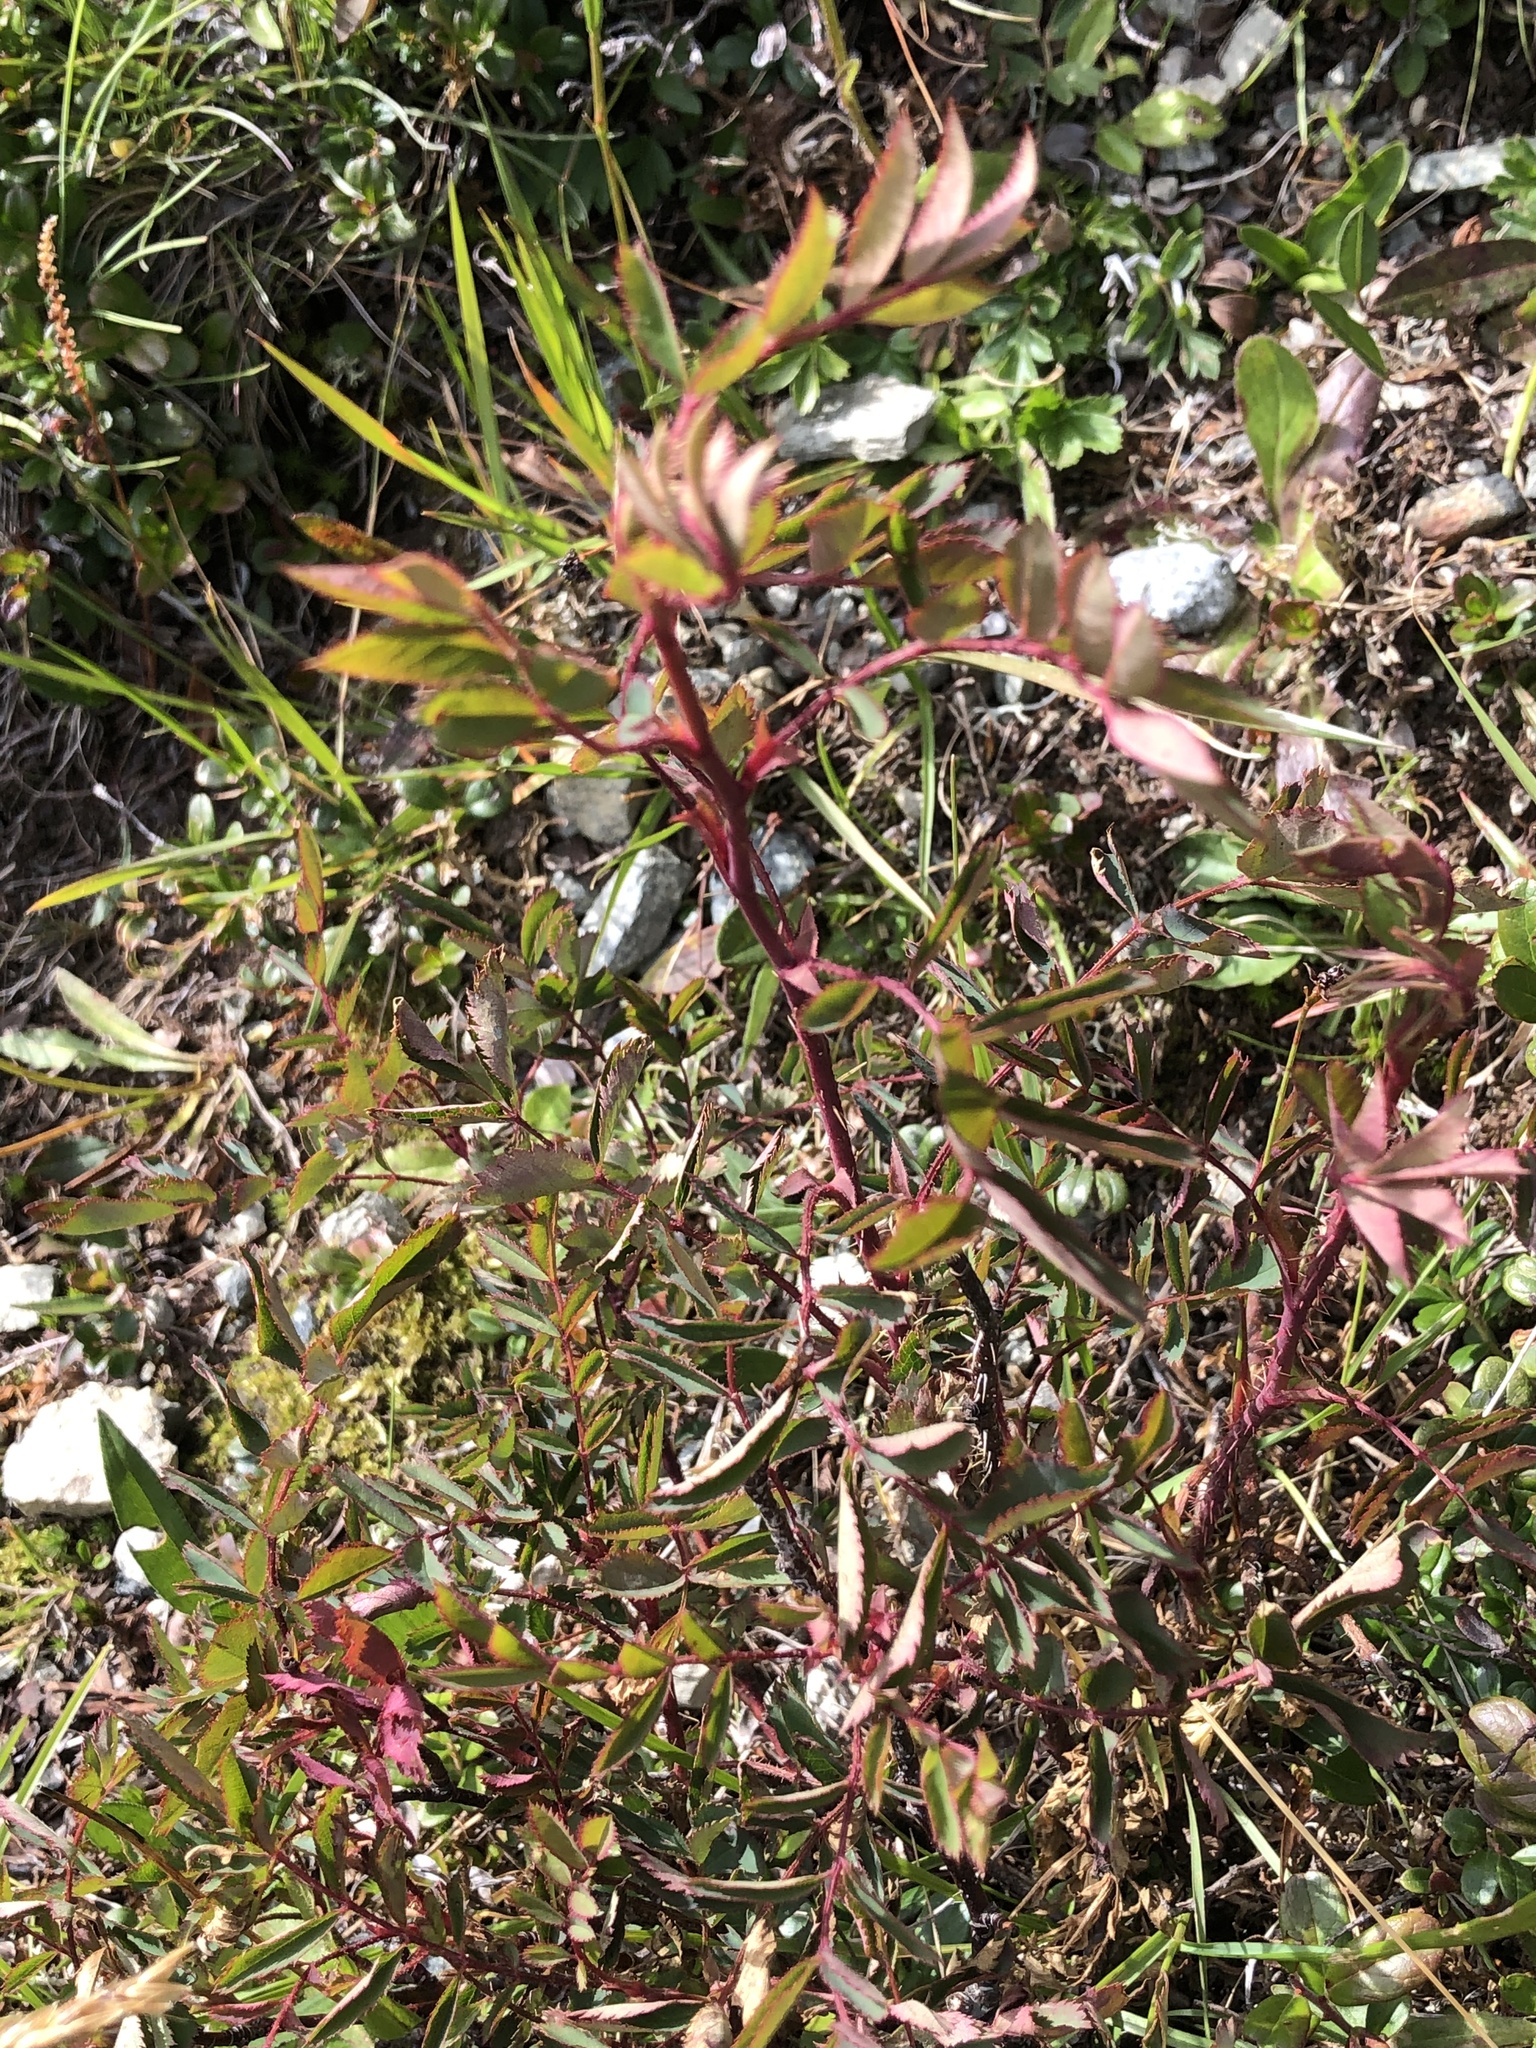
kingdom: Plantae
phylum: Tracheophyta
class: Magnoliopsida
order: Rosales
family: Rosaceae
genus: Rosa
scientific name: Rosa pendulina
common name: Alpine rose
